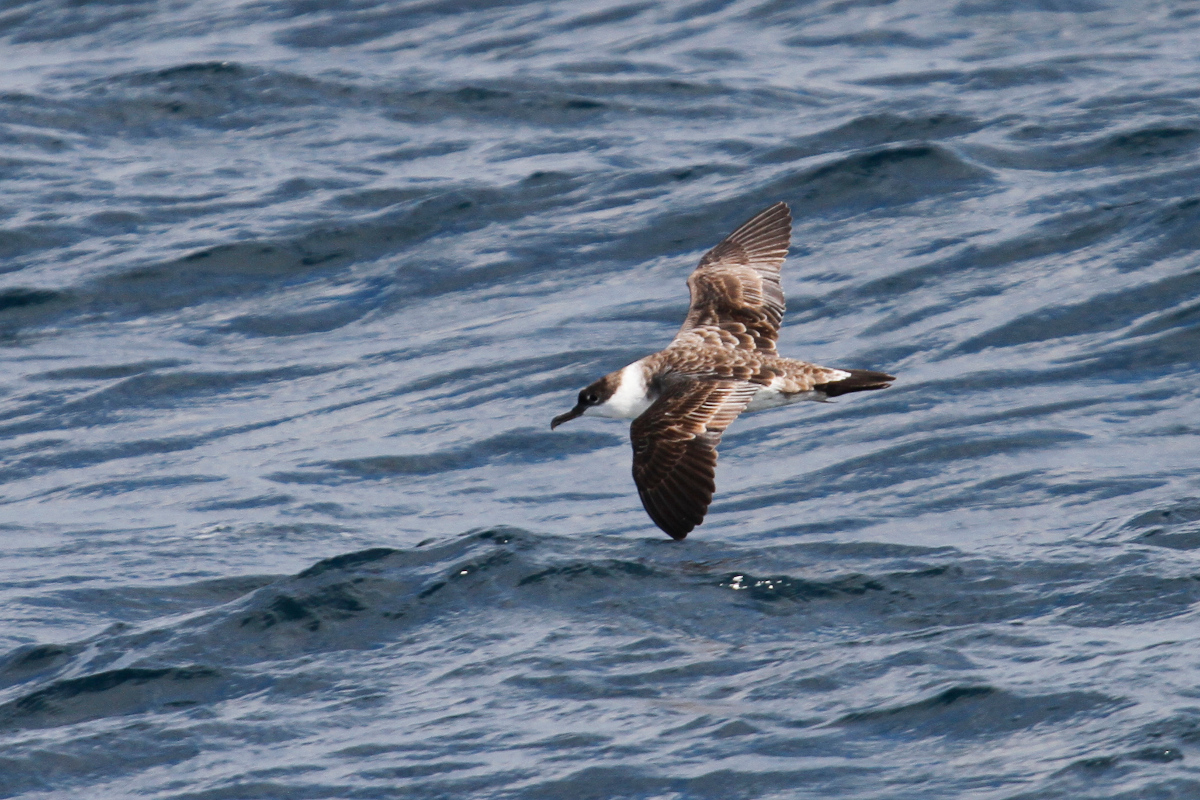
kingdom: Animalia
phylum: Chordata
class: Aves
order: Procellariiformes
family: Procellariidae
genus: Puffinus
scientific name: Puffinus gravis
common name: Great shearwater
